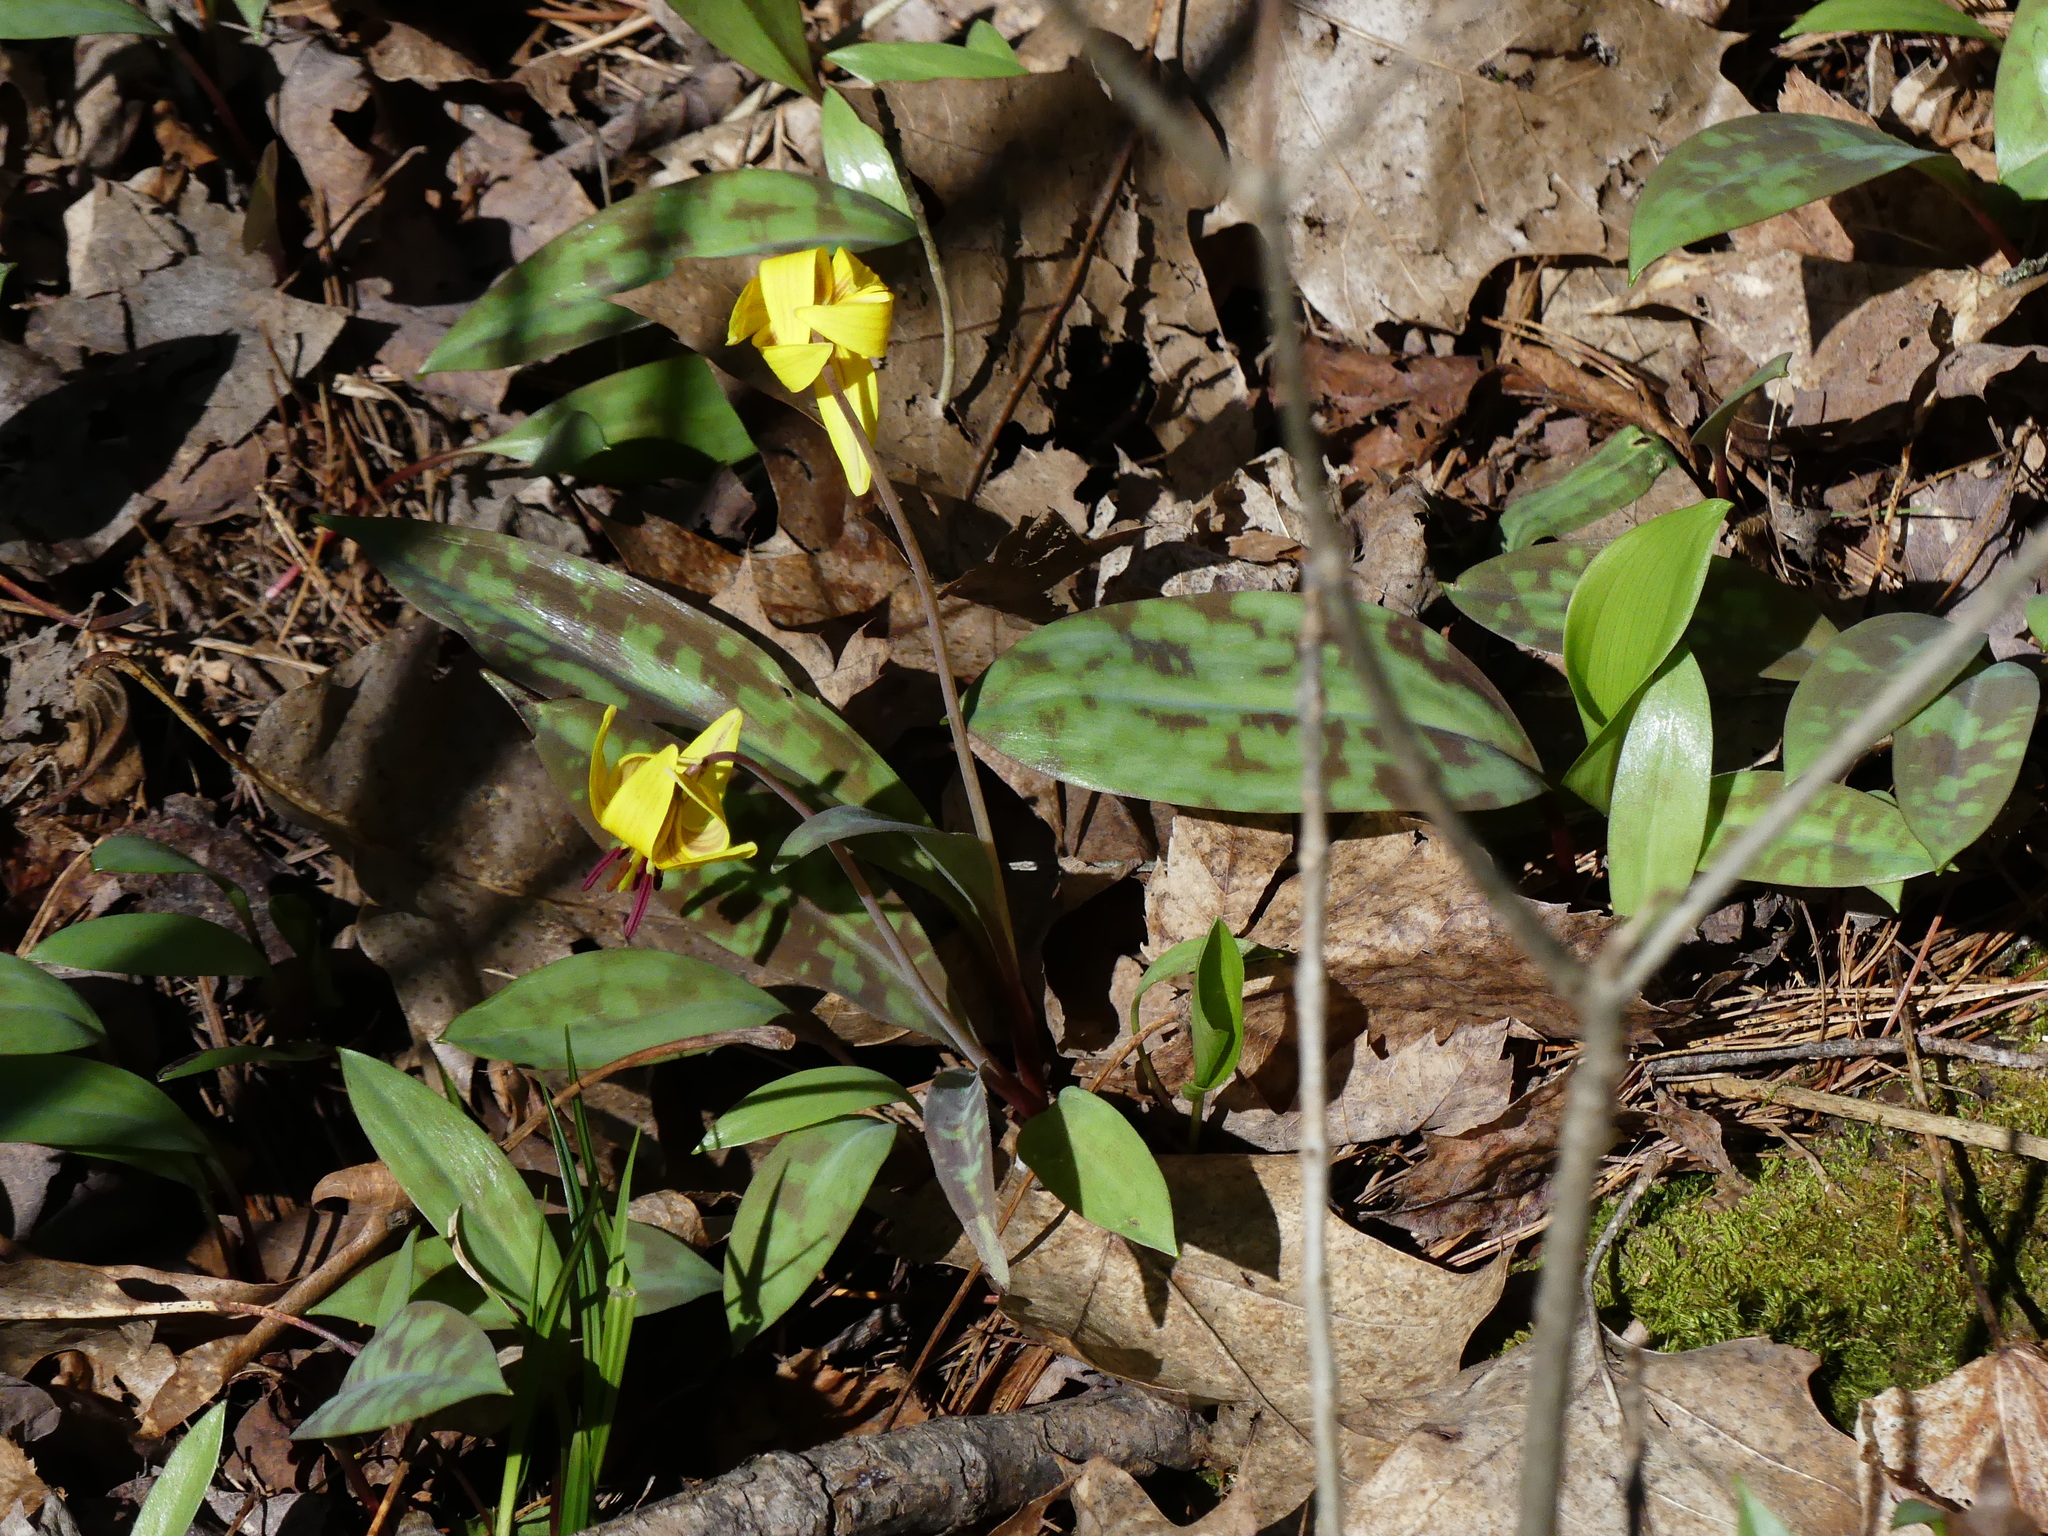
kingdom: Plantae
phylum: Tracheophyta
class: Liliopsida
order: Liliales
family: Liliaceae
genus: Erythronium
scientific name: Erythronium americanum
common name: Yellow adder's-tongue
